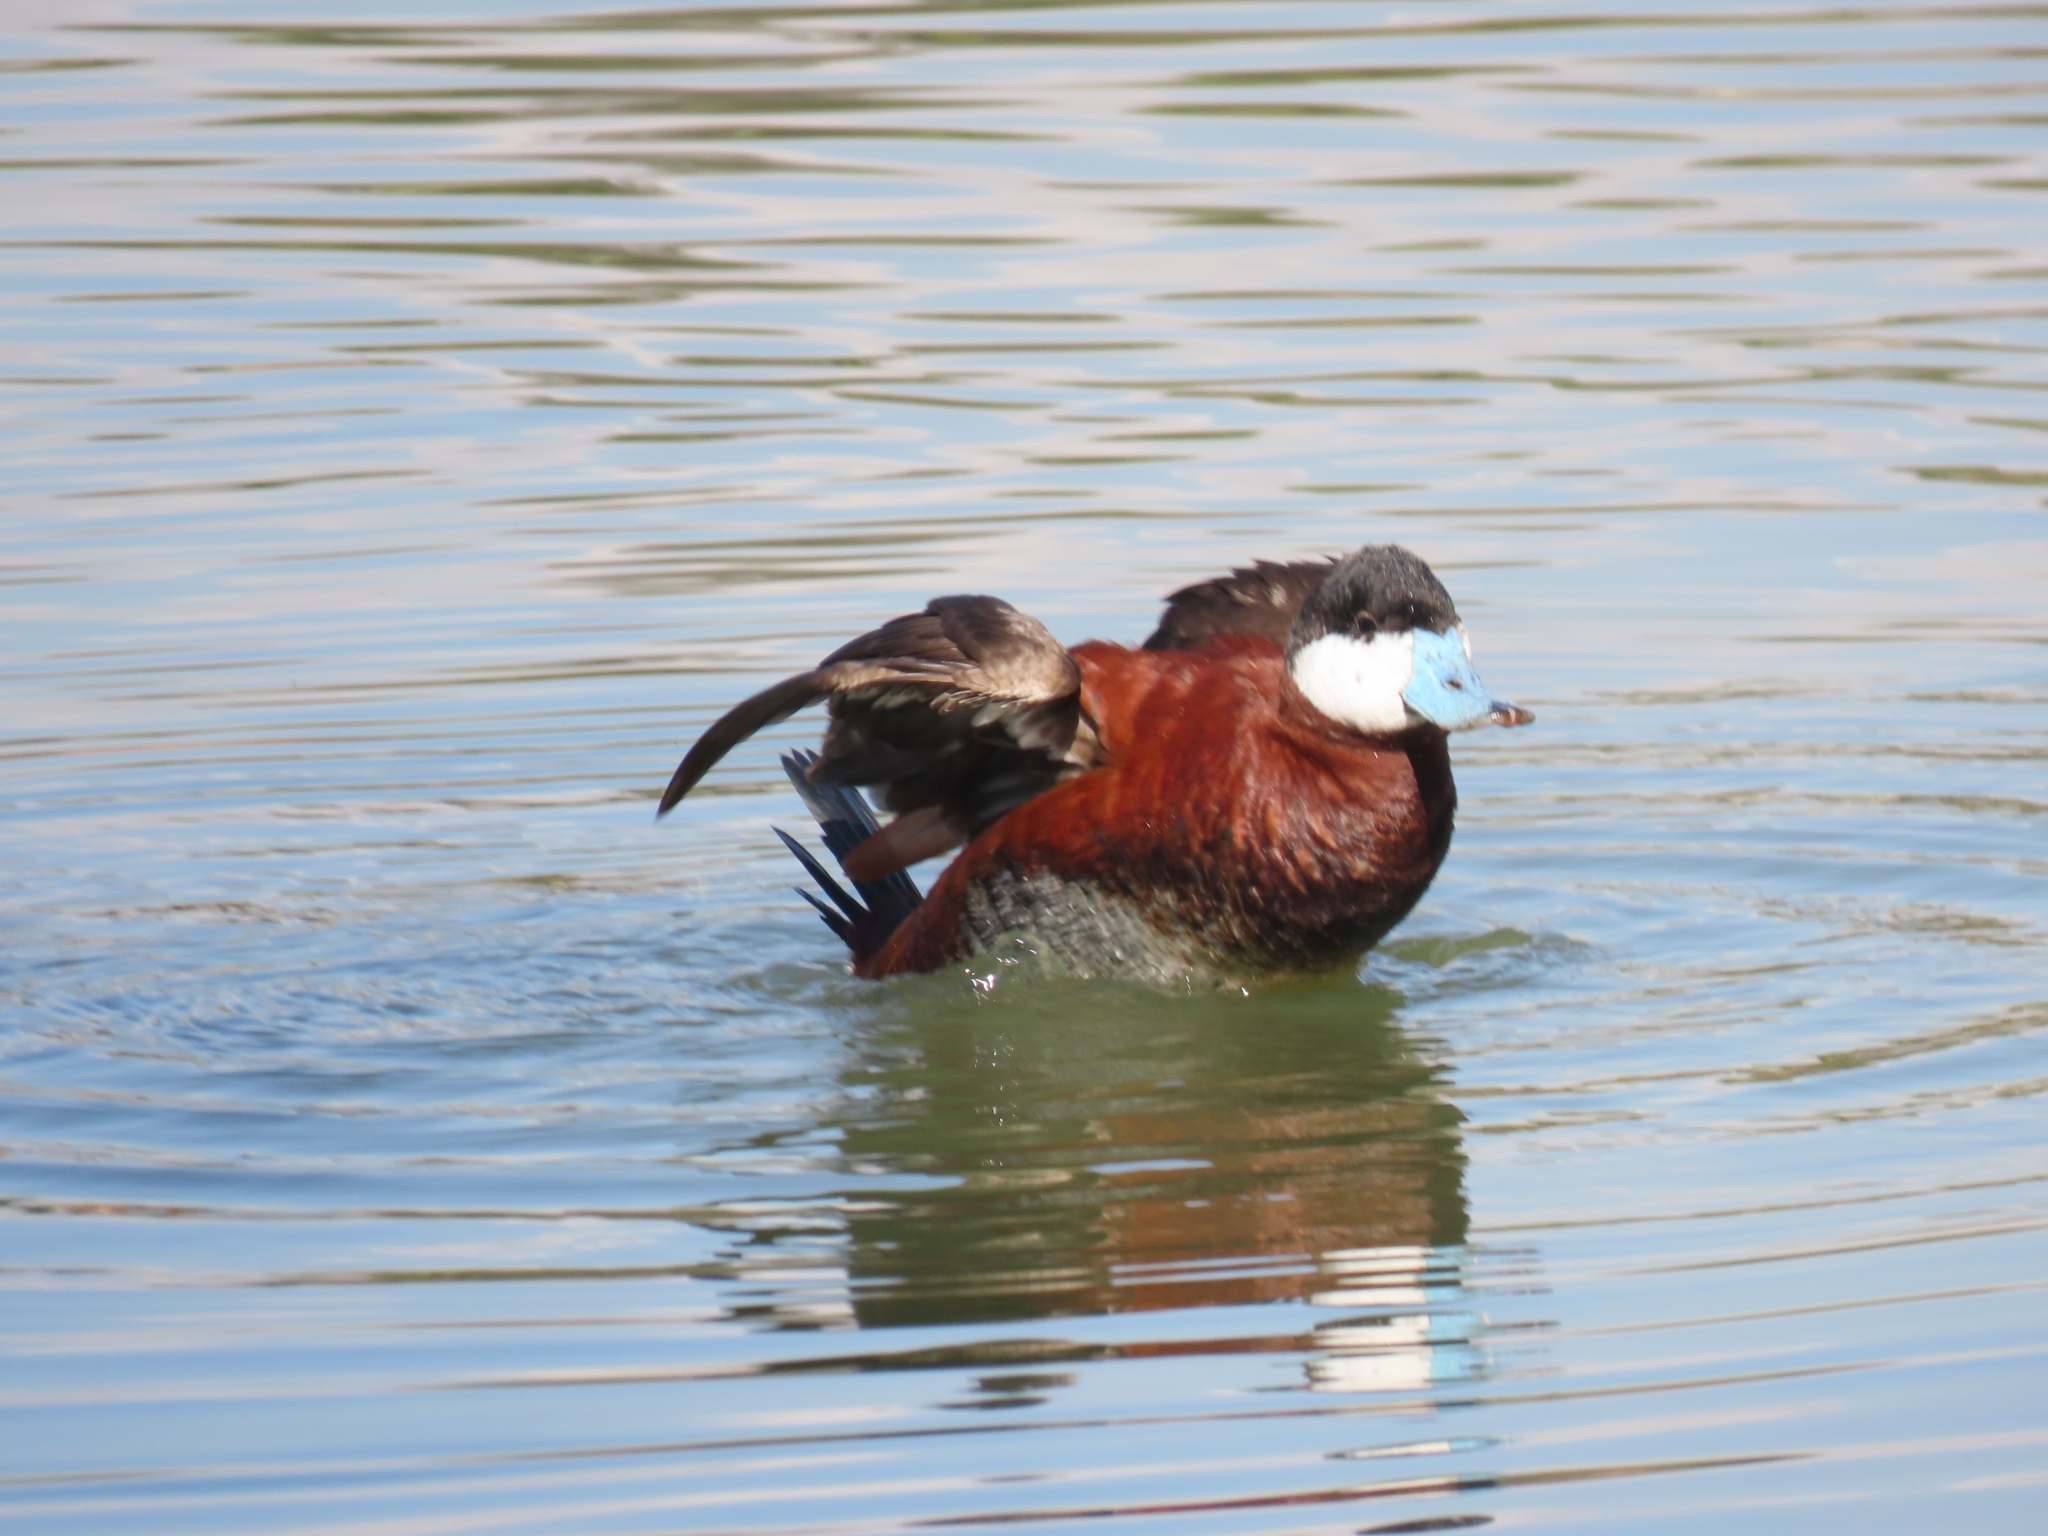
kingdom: Animalia
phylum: Chordata
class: Aves
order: Anseriformes
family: Anatidae
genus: Oxyura
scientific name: Oxyura jamaicensis
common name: Ruddy duck
